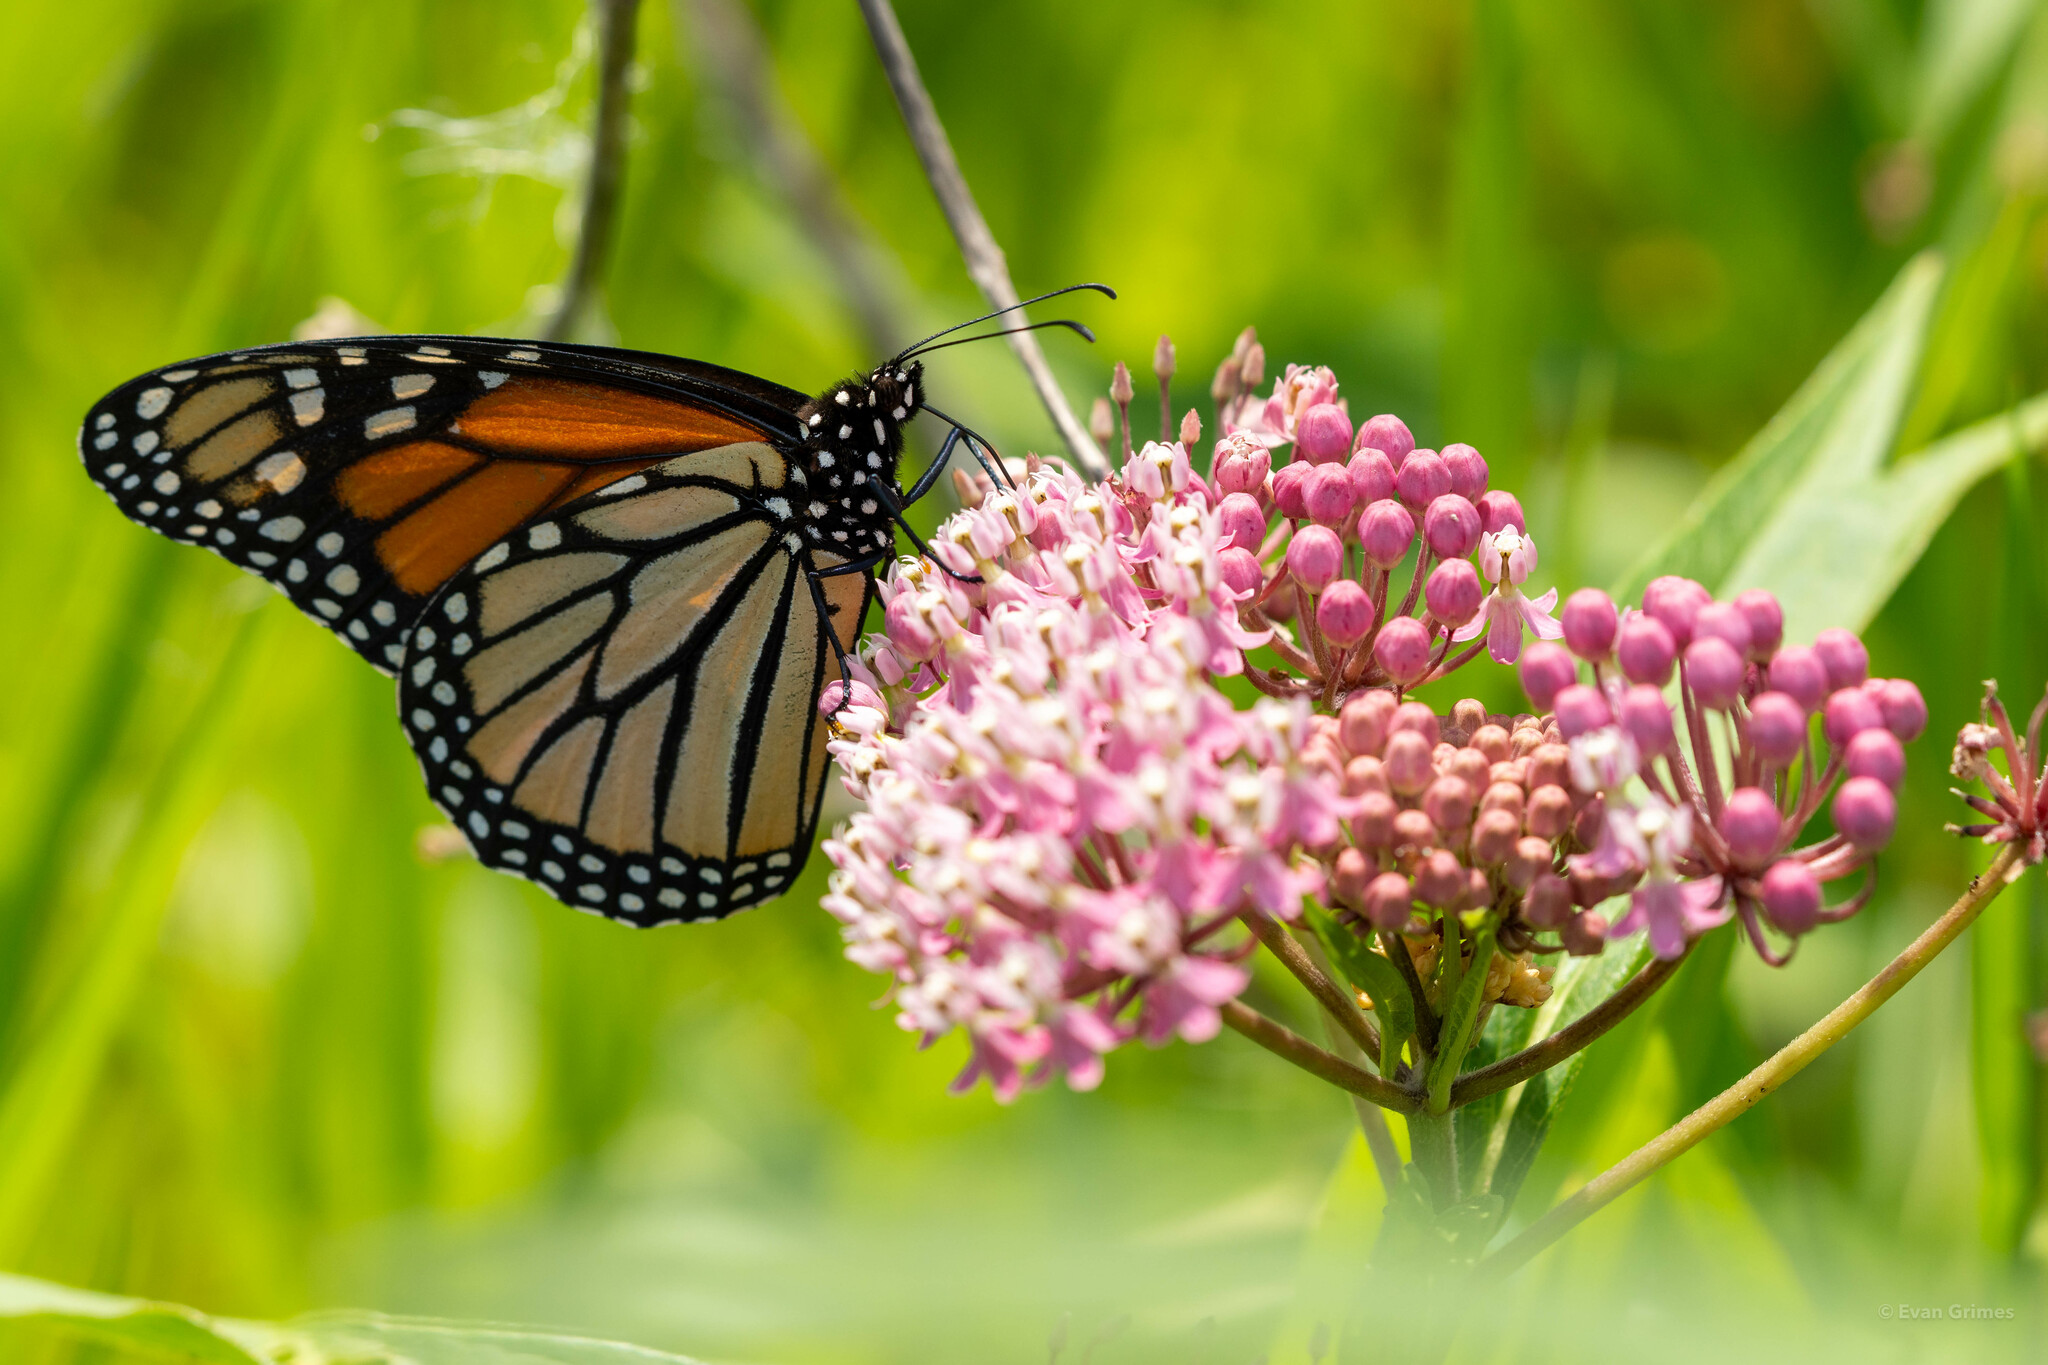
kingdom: Animalia
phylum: Arthropoda
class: Insecta
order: Lepidoptera
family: Nymphalidae
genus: Danaus
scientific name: Danaus plexippus
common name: Monarch
